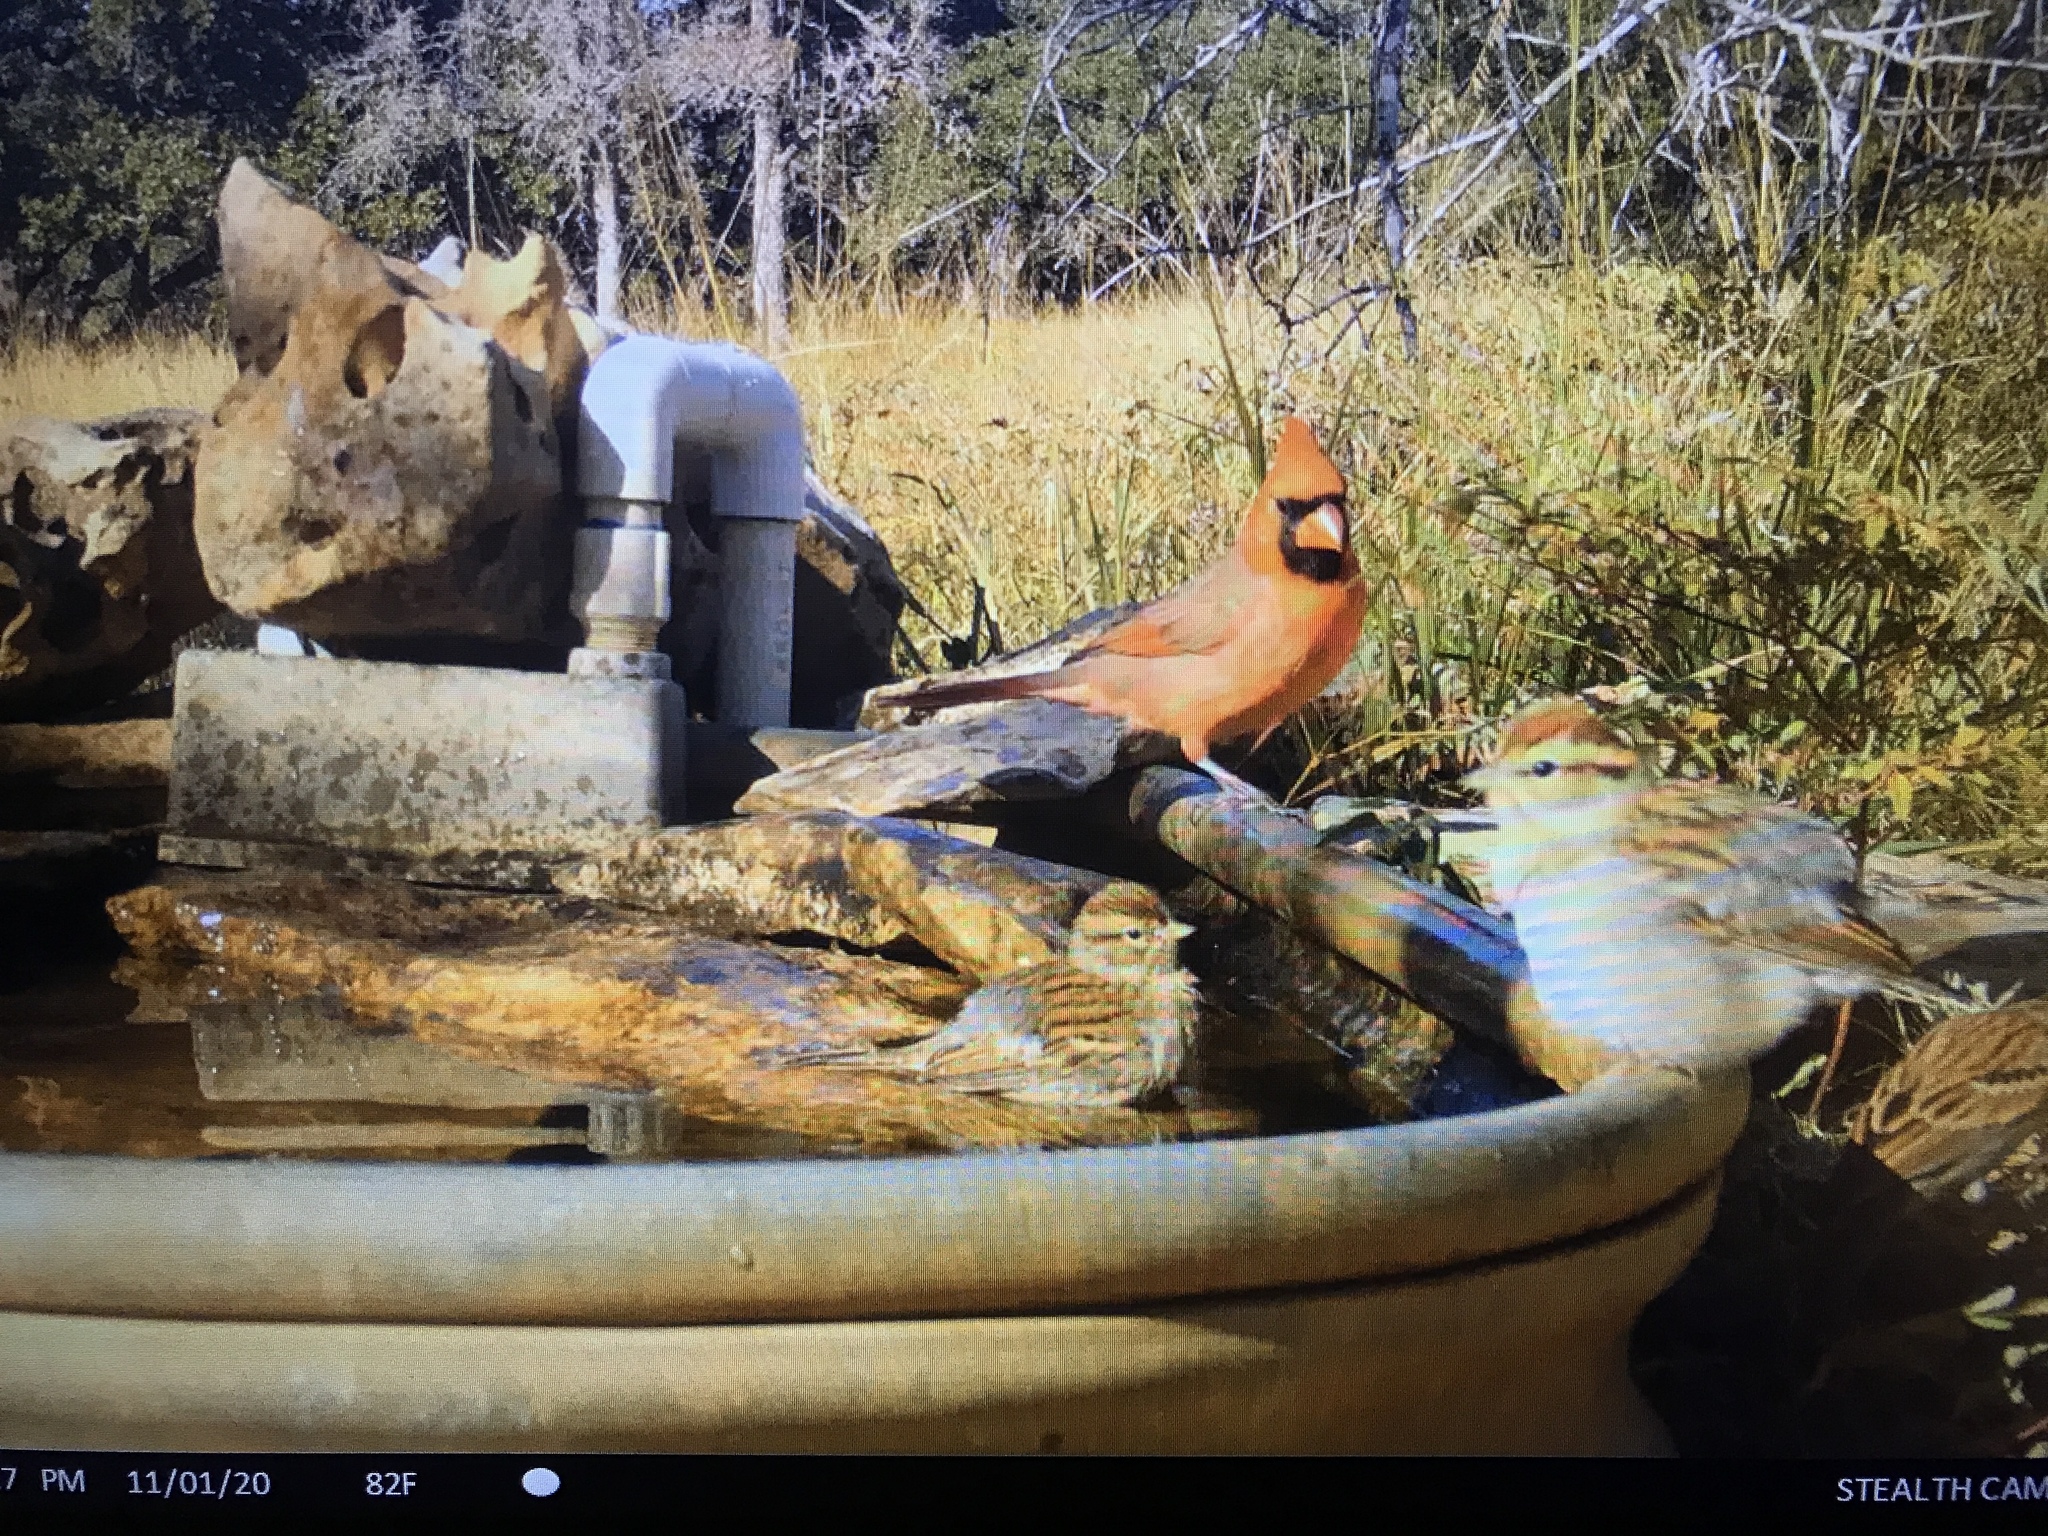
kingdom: Animalia
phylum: Chordata
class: Aves
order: Passeriformes
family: Cardinalidae
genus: Cardinalis
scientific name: Cardinalis cardinalis
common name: Northern cardinal
